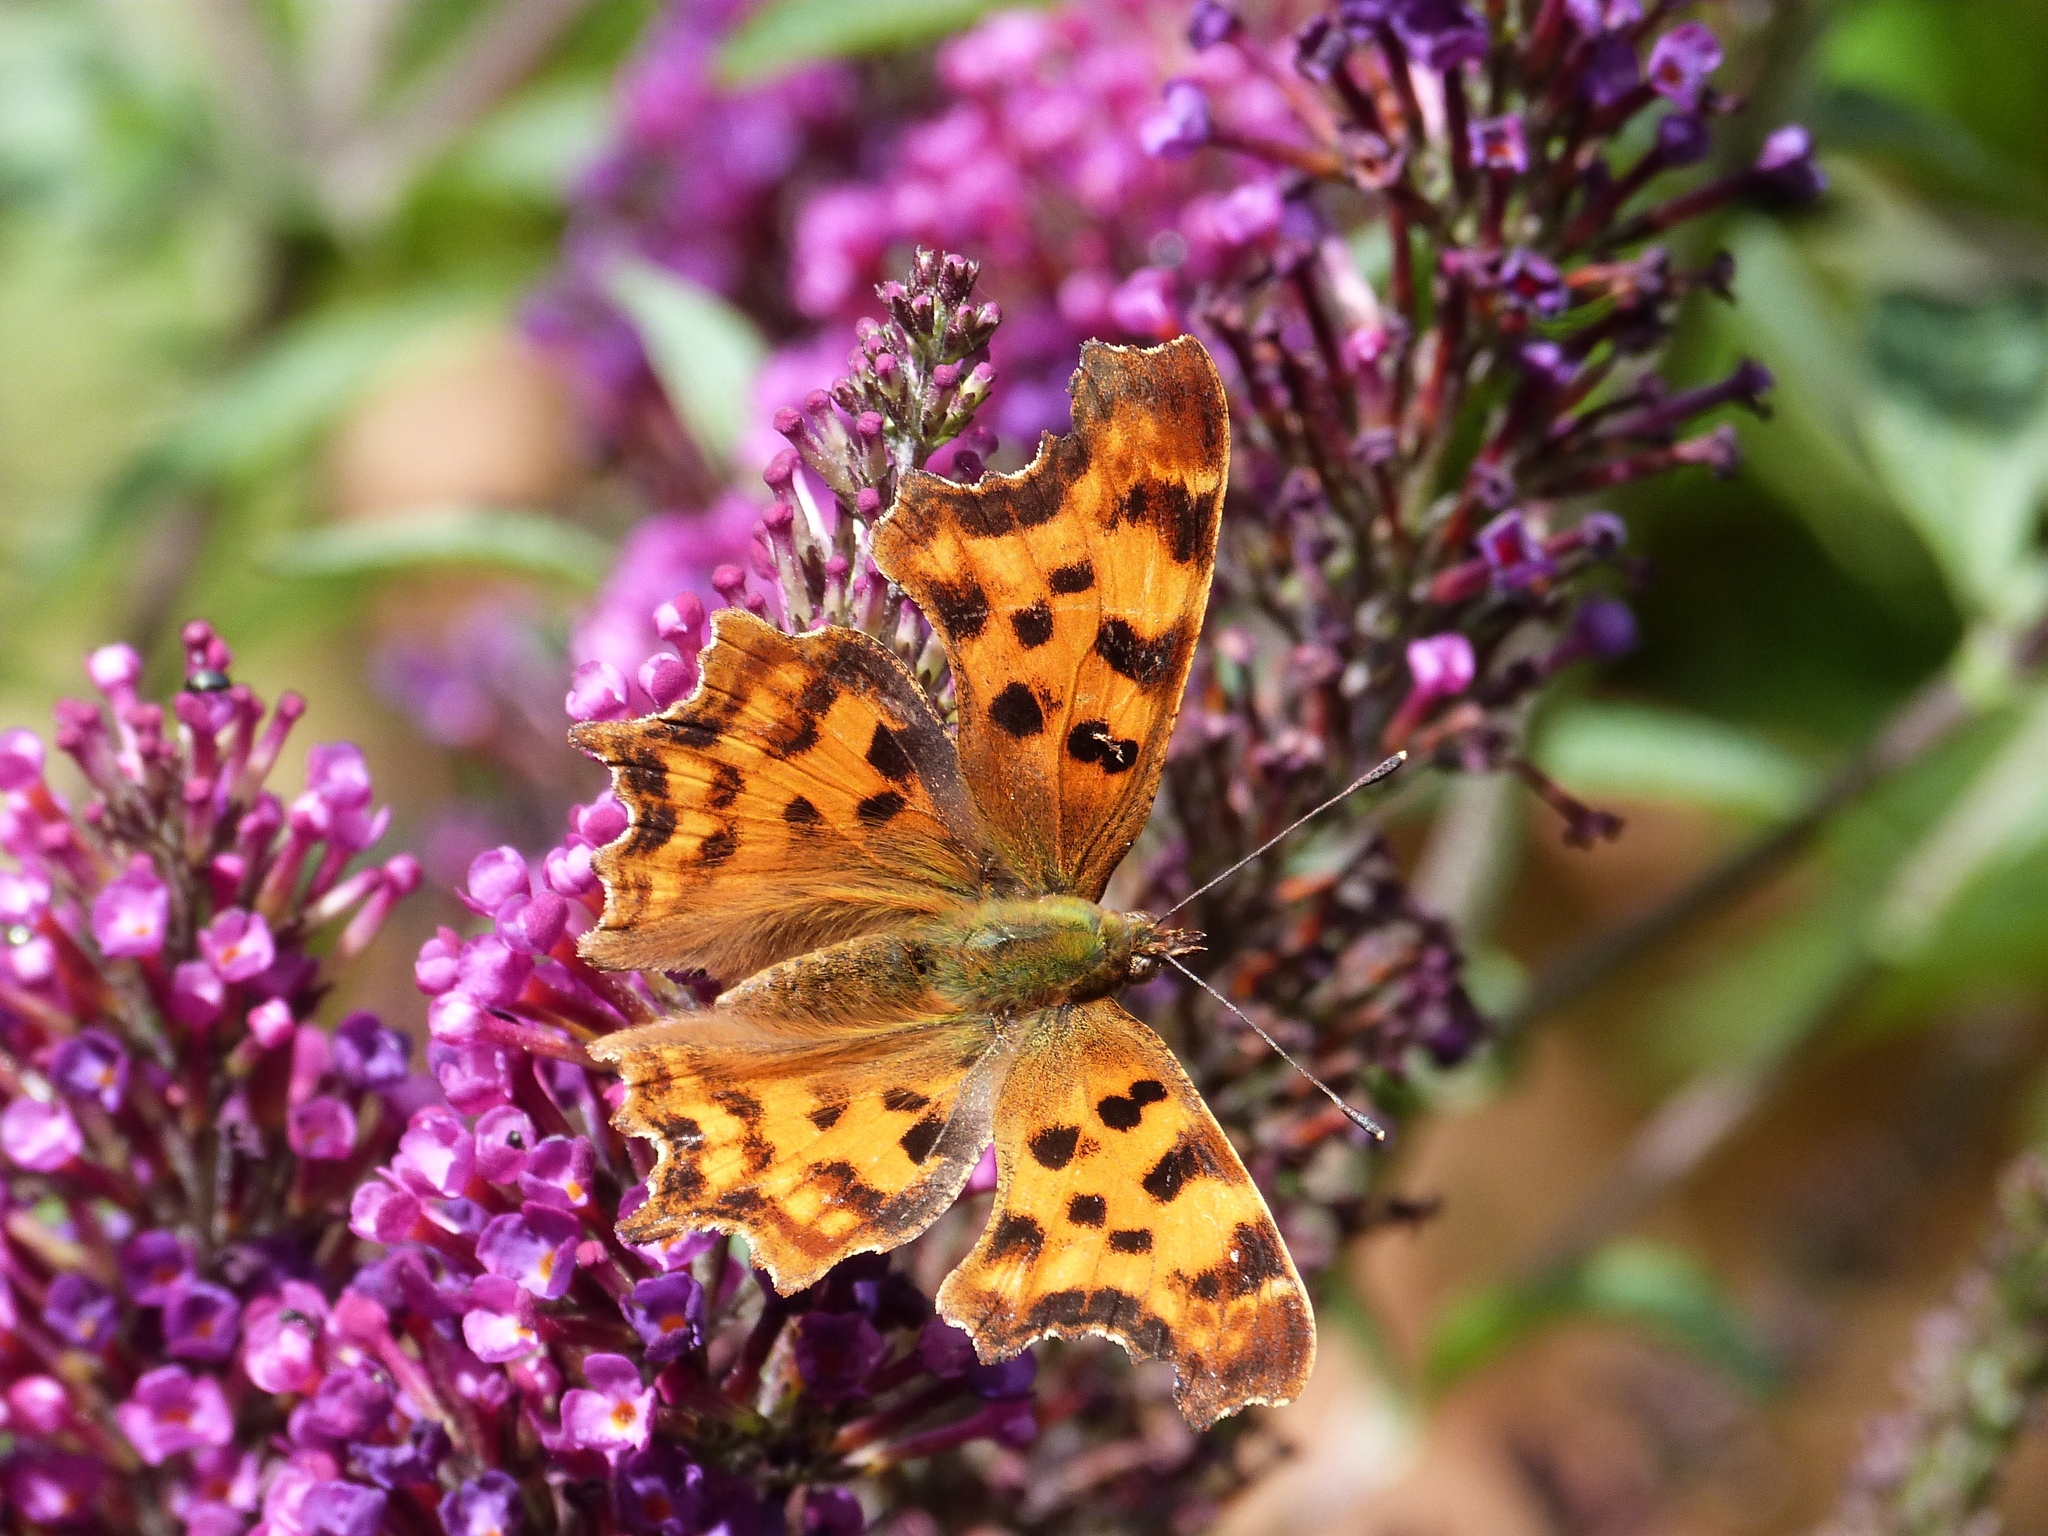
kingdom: Animalia
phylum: Arthropoda
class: Insecta
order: Lepidoptera
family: Nymphalidae
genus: Polygonia
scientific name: Polygonia c-album
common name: Comma
